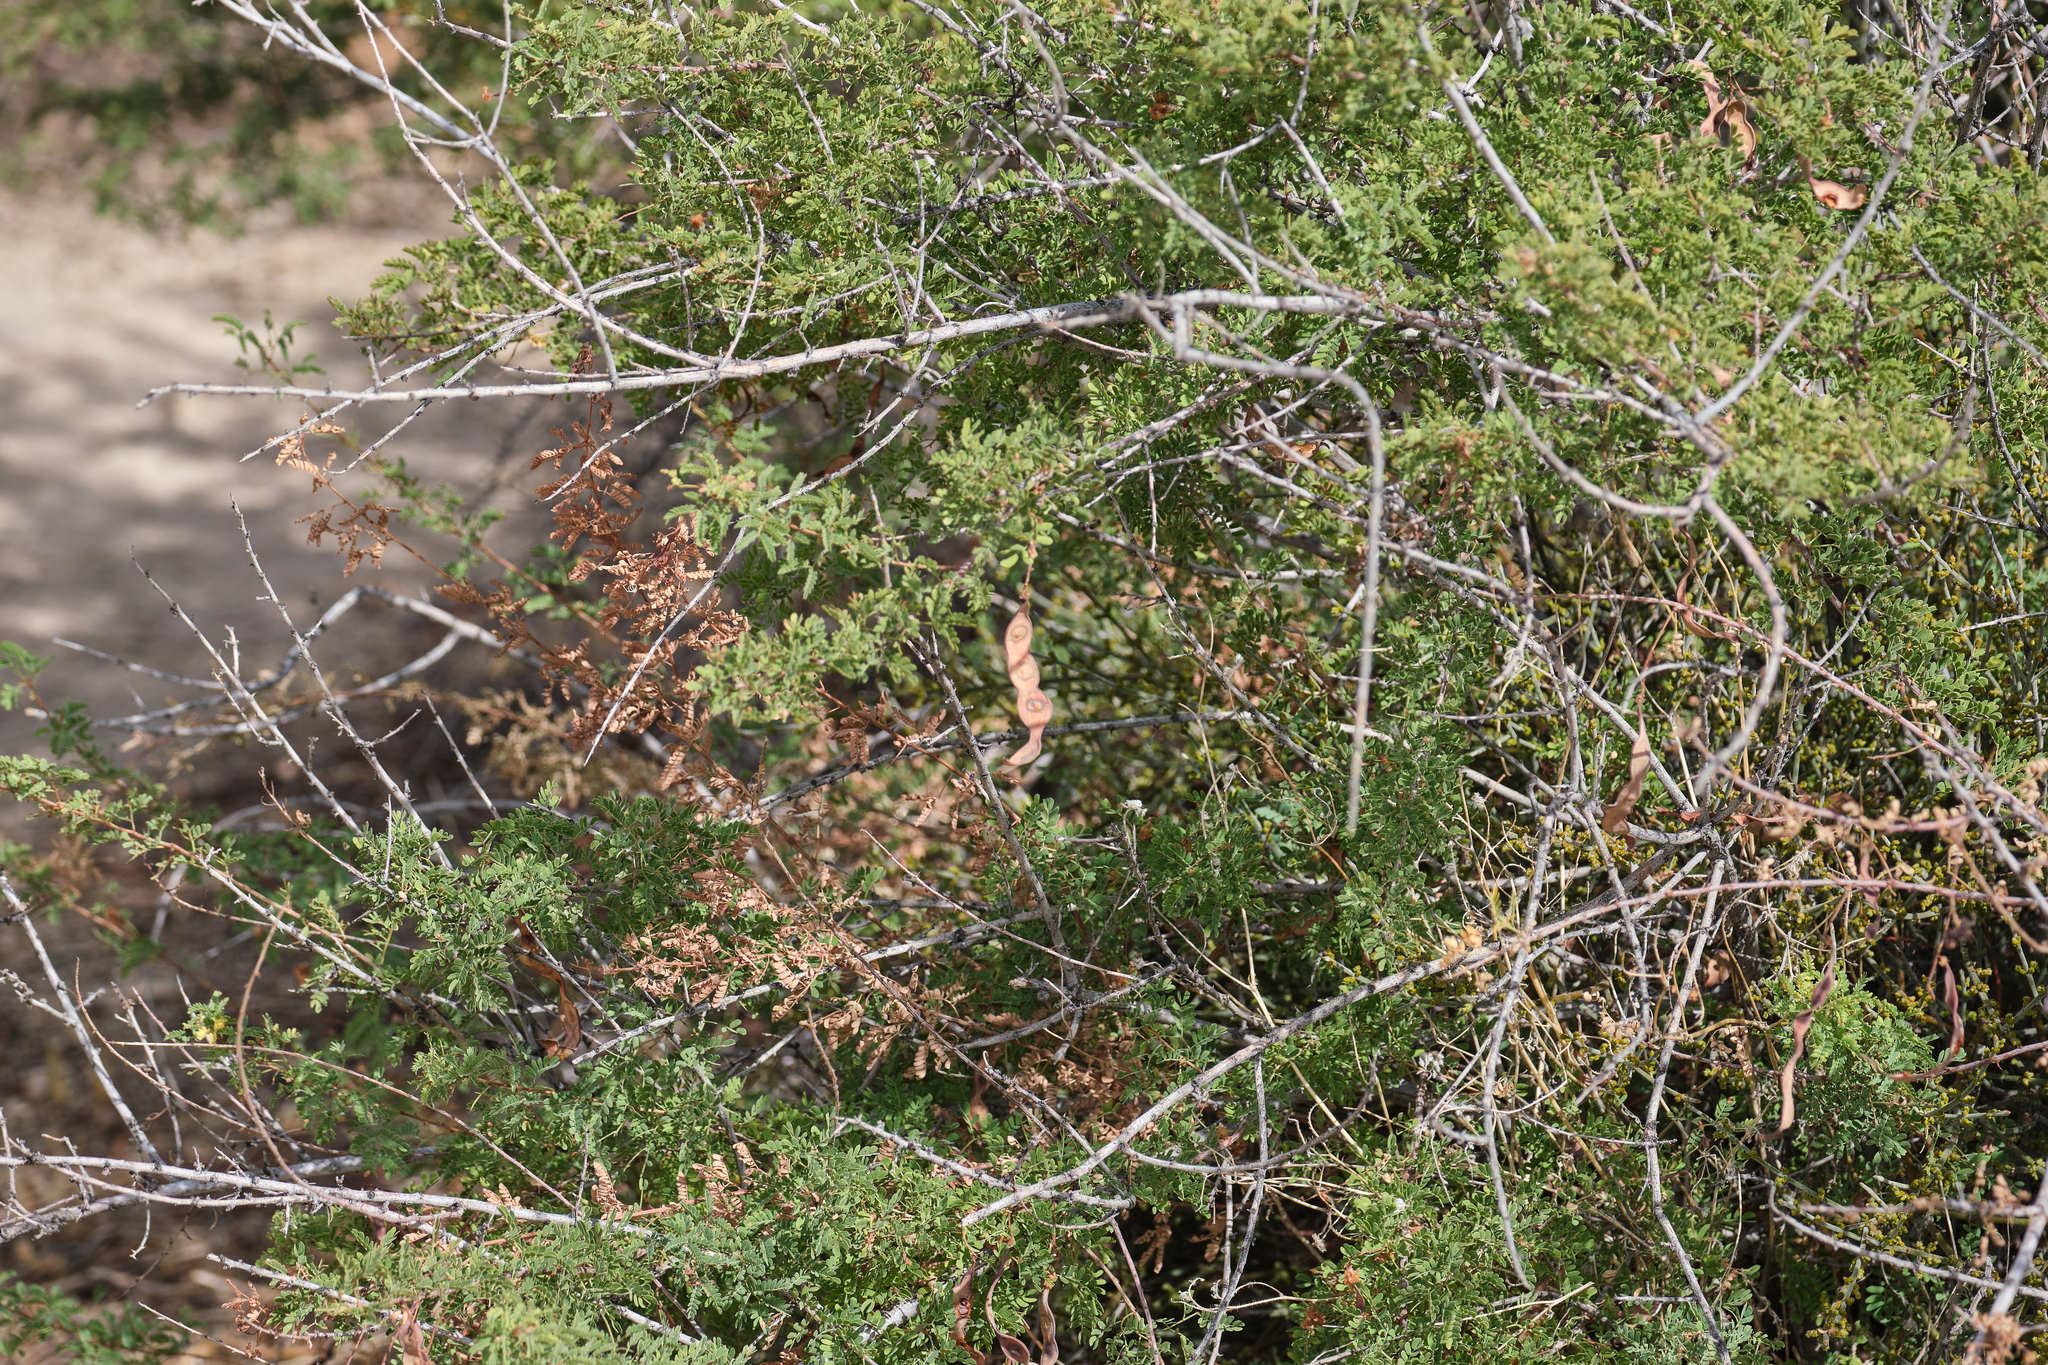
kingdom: Plantae
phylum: Tracheophyta
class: Magnoliopsida
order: Fabales
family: Fabaceae
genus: Senegalia
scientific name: Senegalia greggii
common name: Texas-mimosa
